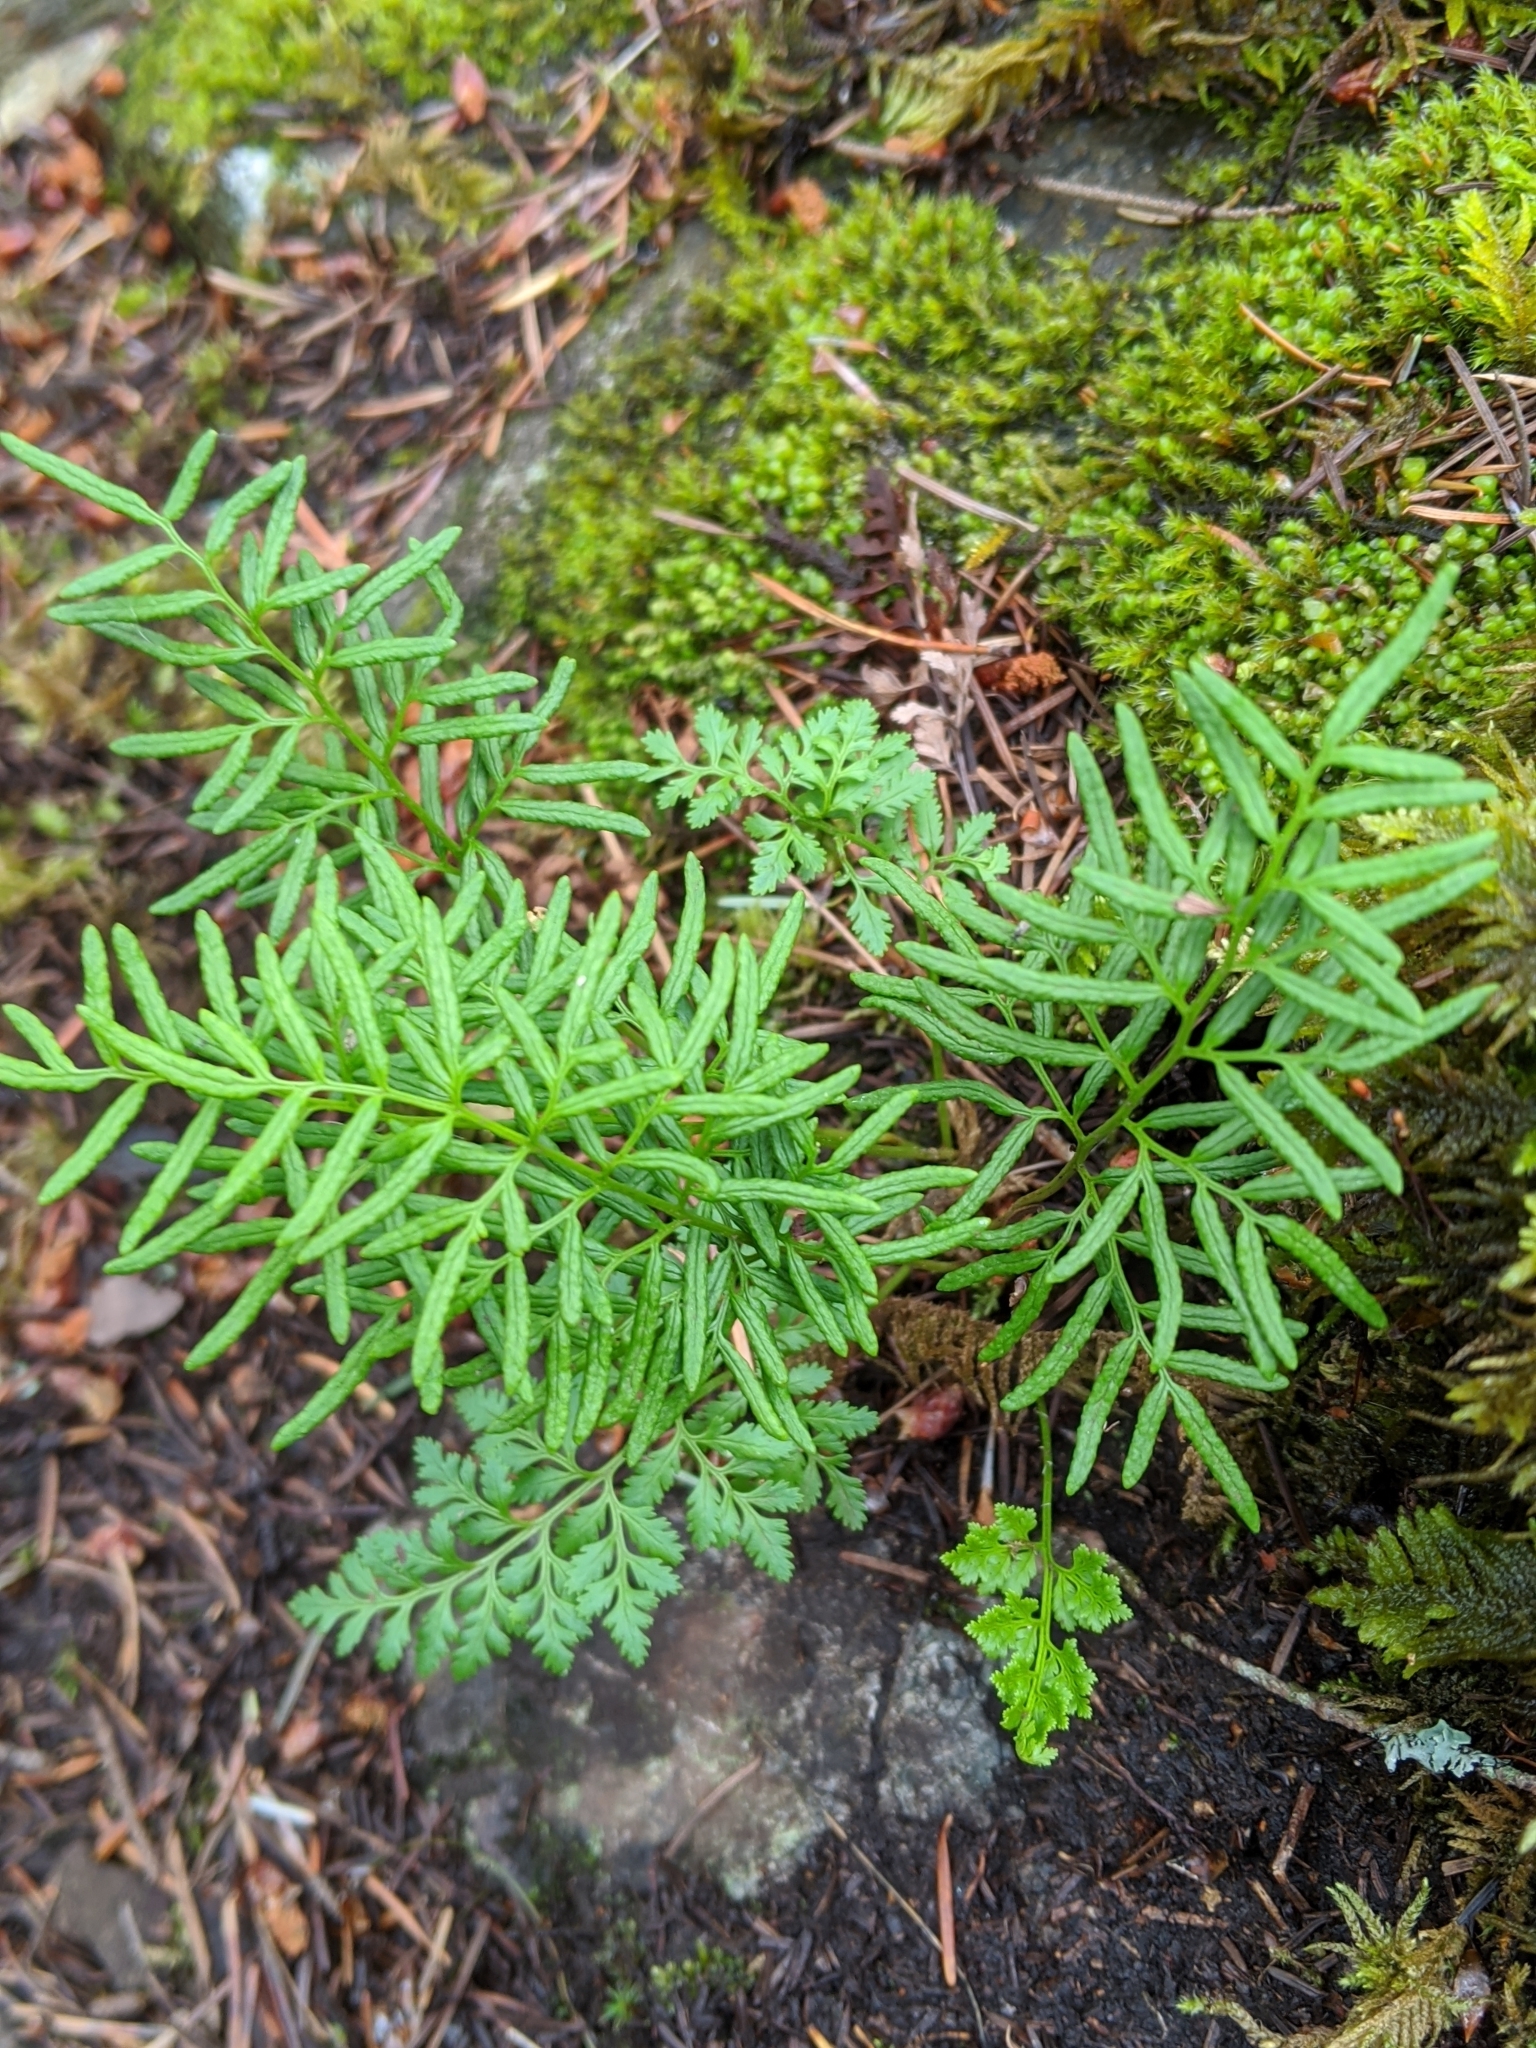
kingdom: Plantae
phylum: Tracheophyta
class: Polypodiopsida
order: Polypodiales
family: Pteridaceae
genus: Cryptogramma
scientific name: Cryptogramma acrostichoides
